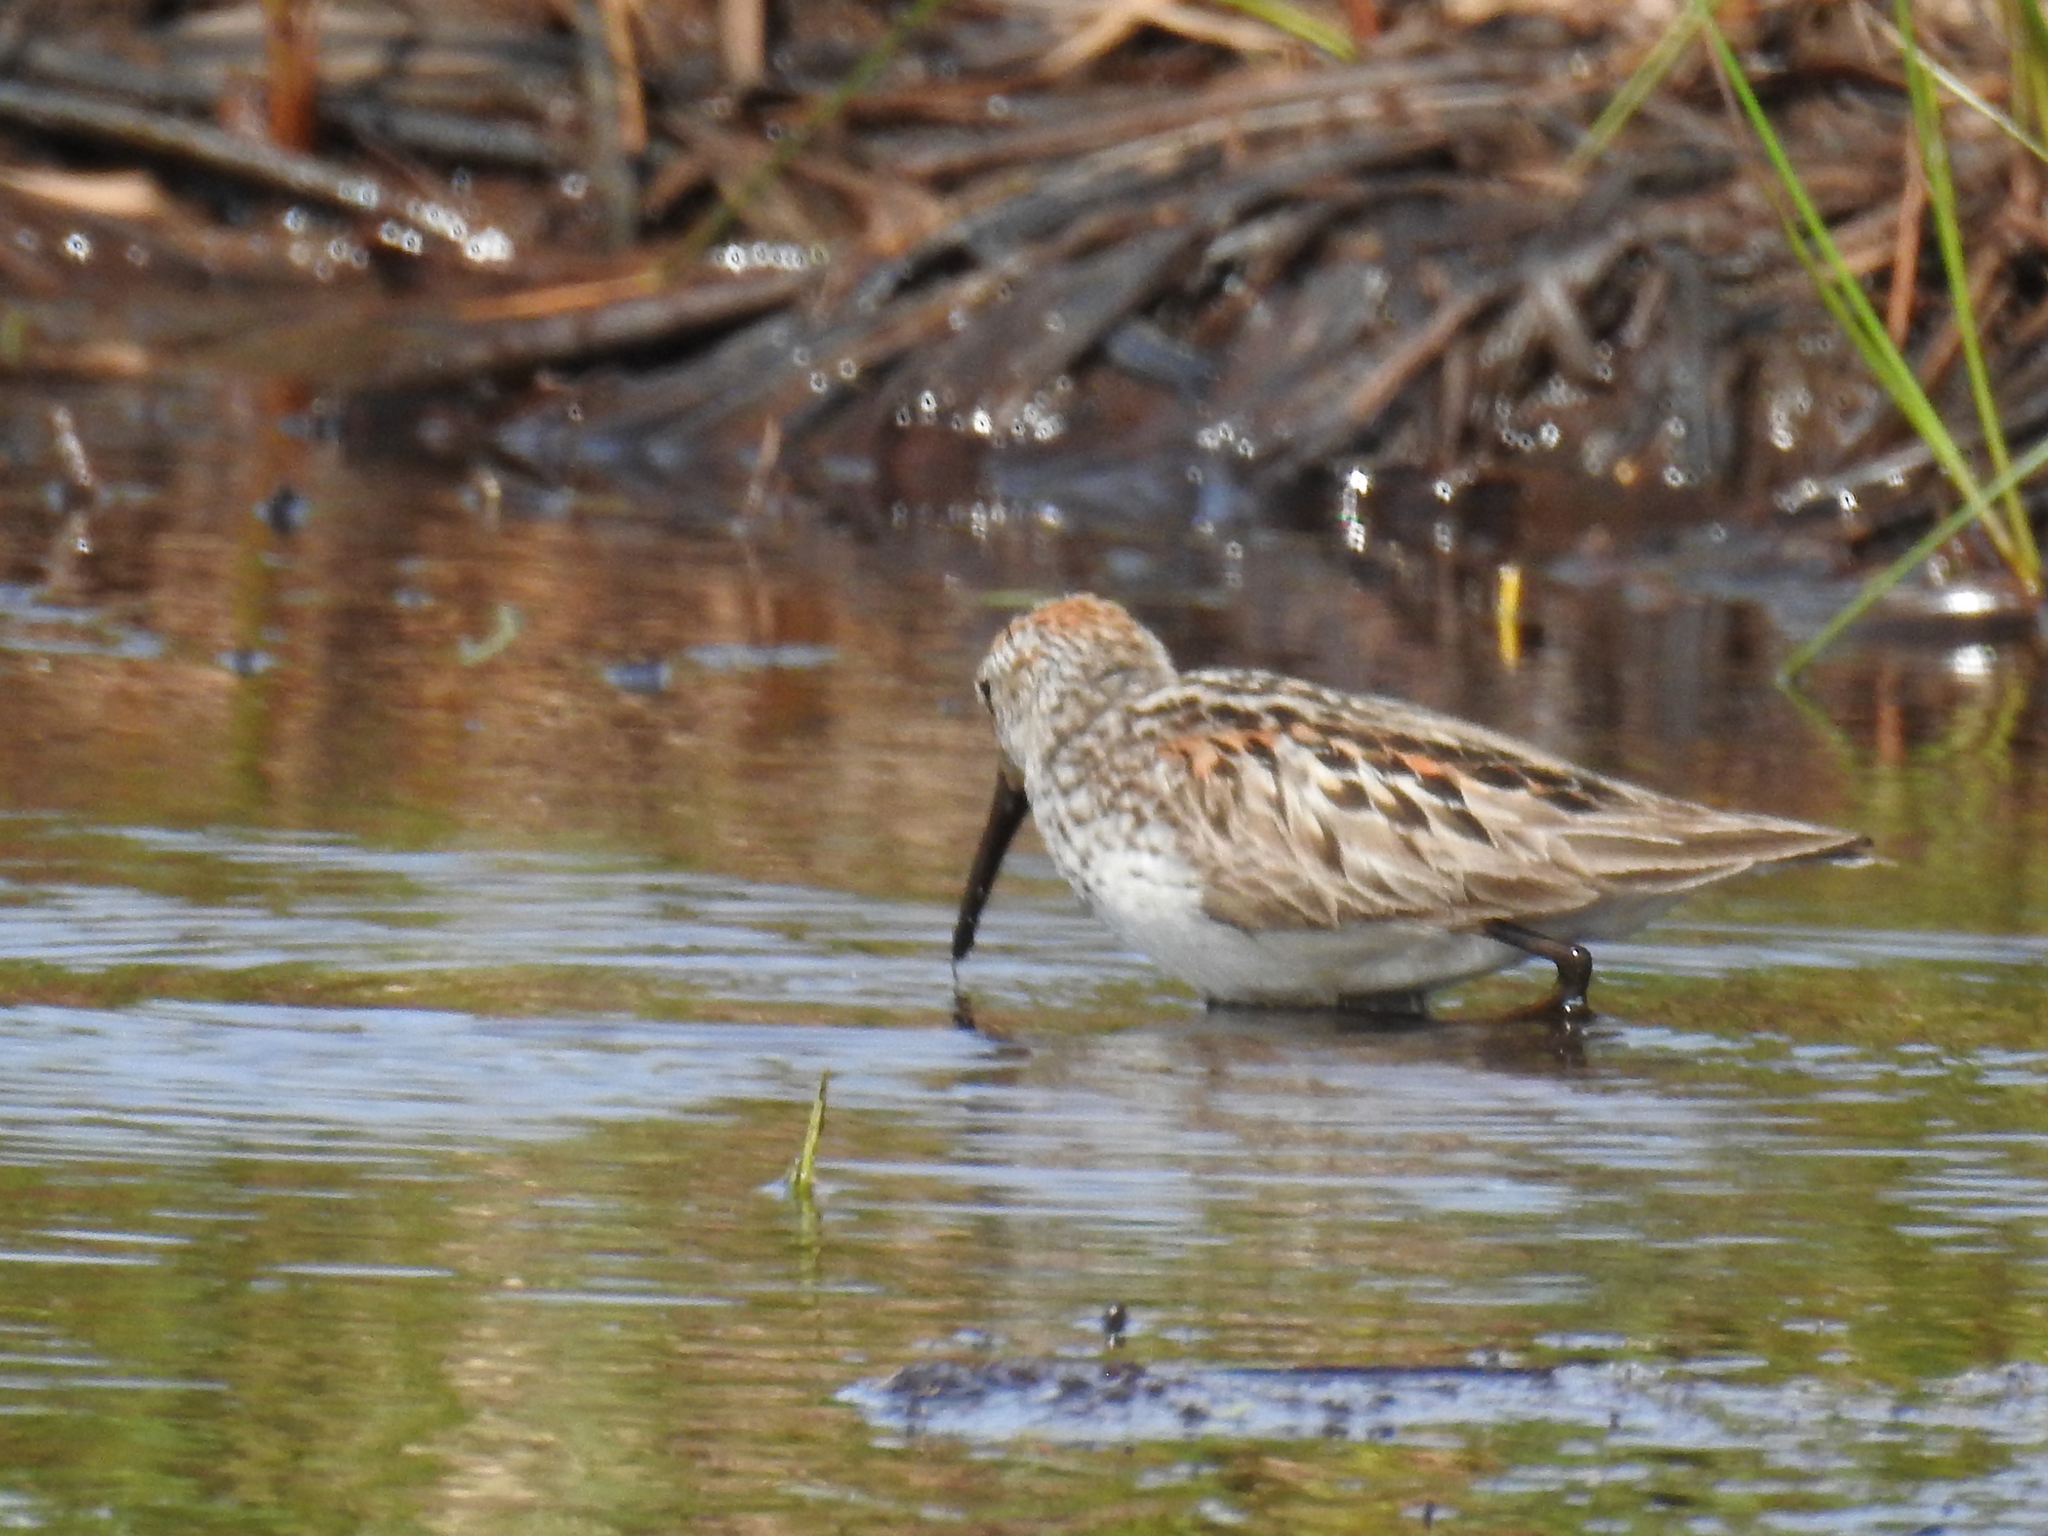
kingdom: Animalia
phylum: Chordata
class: Aves
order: Charadriiformes
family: Scolopacidae
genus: Calidris
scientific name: Calidris mauri
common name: Western sandpiper
